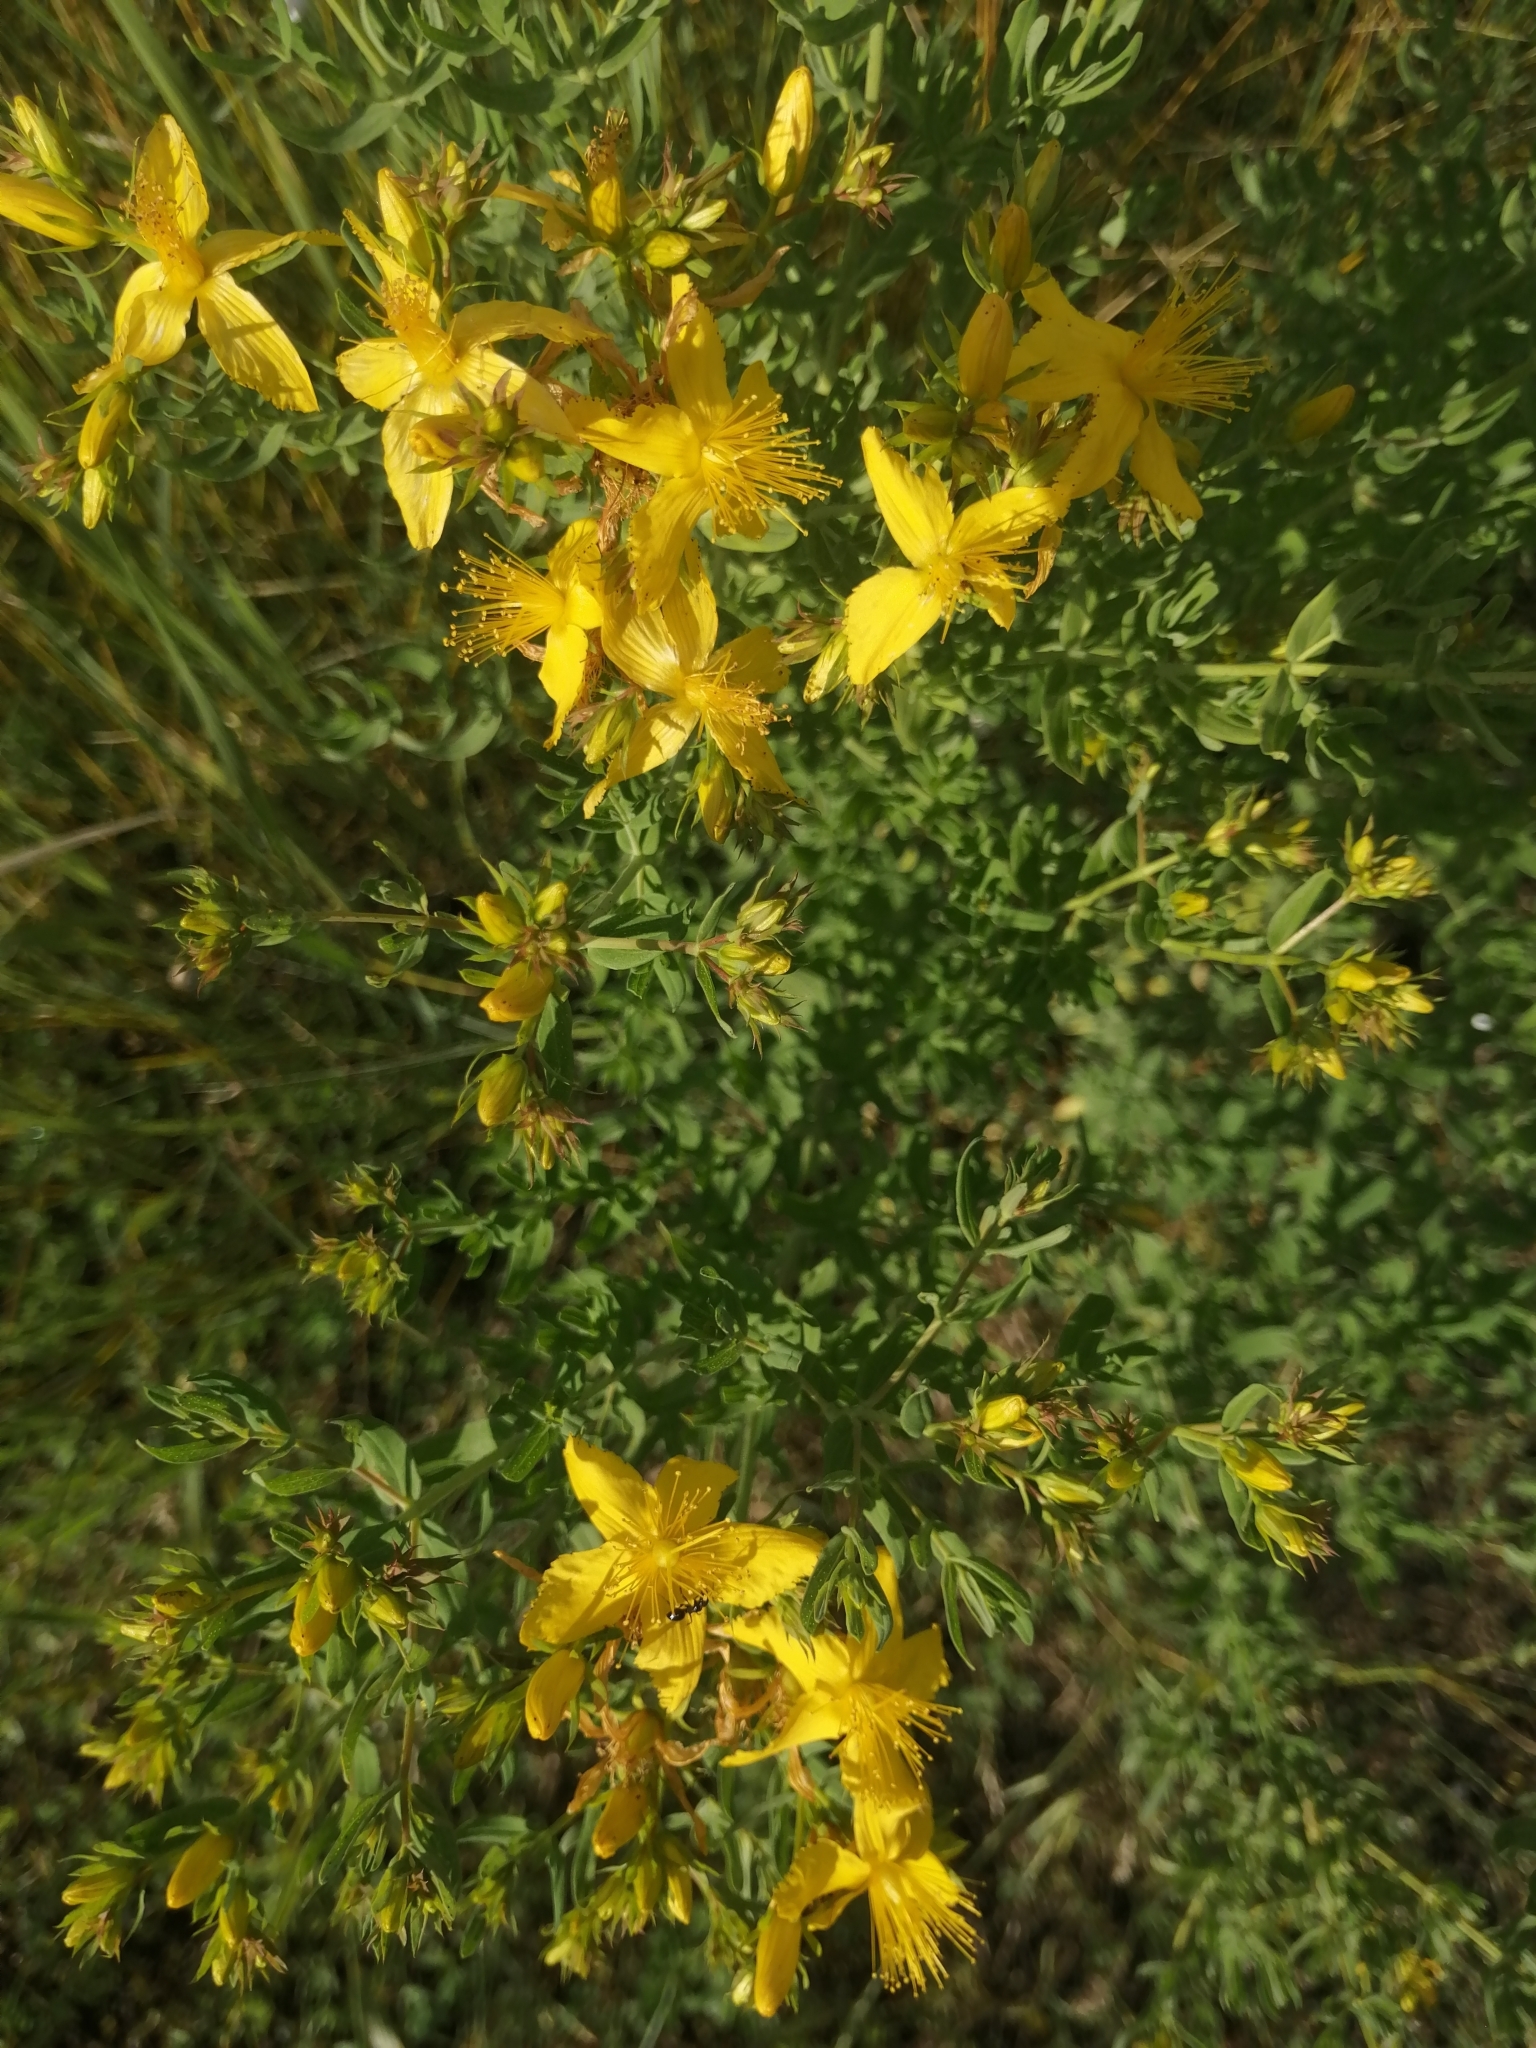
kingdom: Plantae
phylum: Tracheophyta
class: Magnoliopsida
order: Malpighiales
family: Hypericaceae
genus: Hypericum
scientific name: Hypericum perforatum
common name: Common st. johnswort
